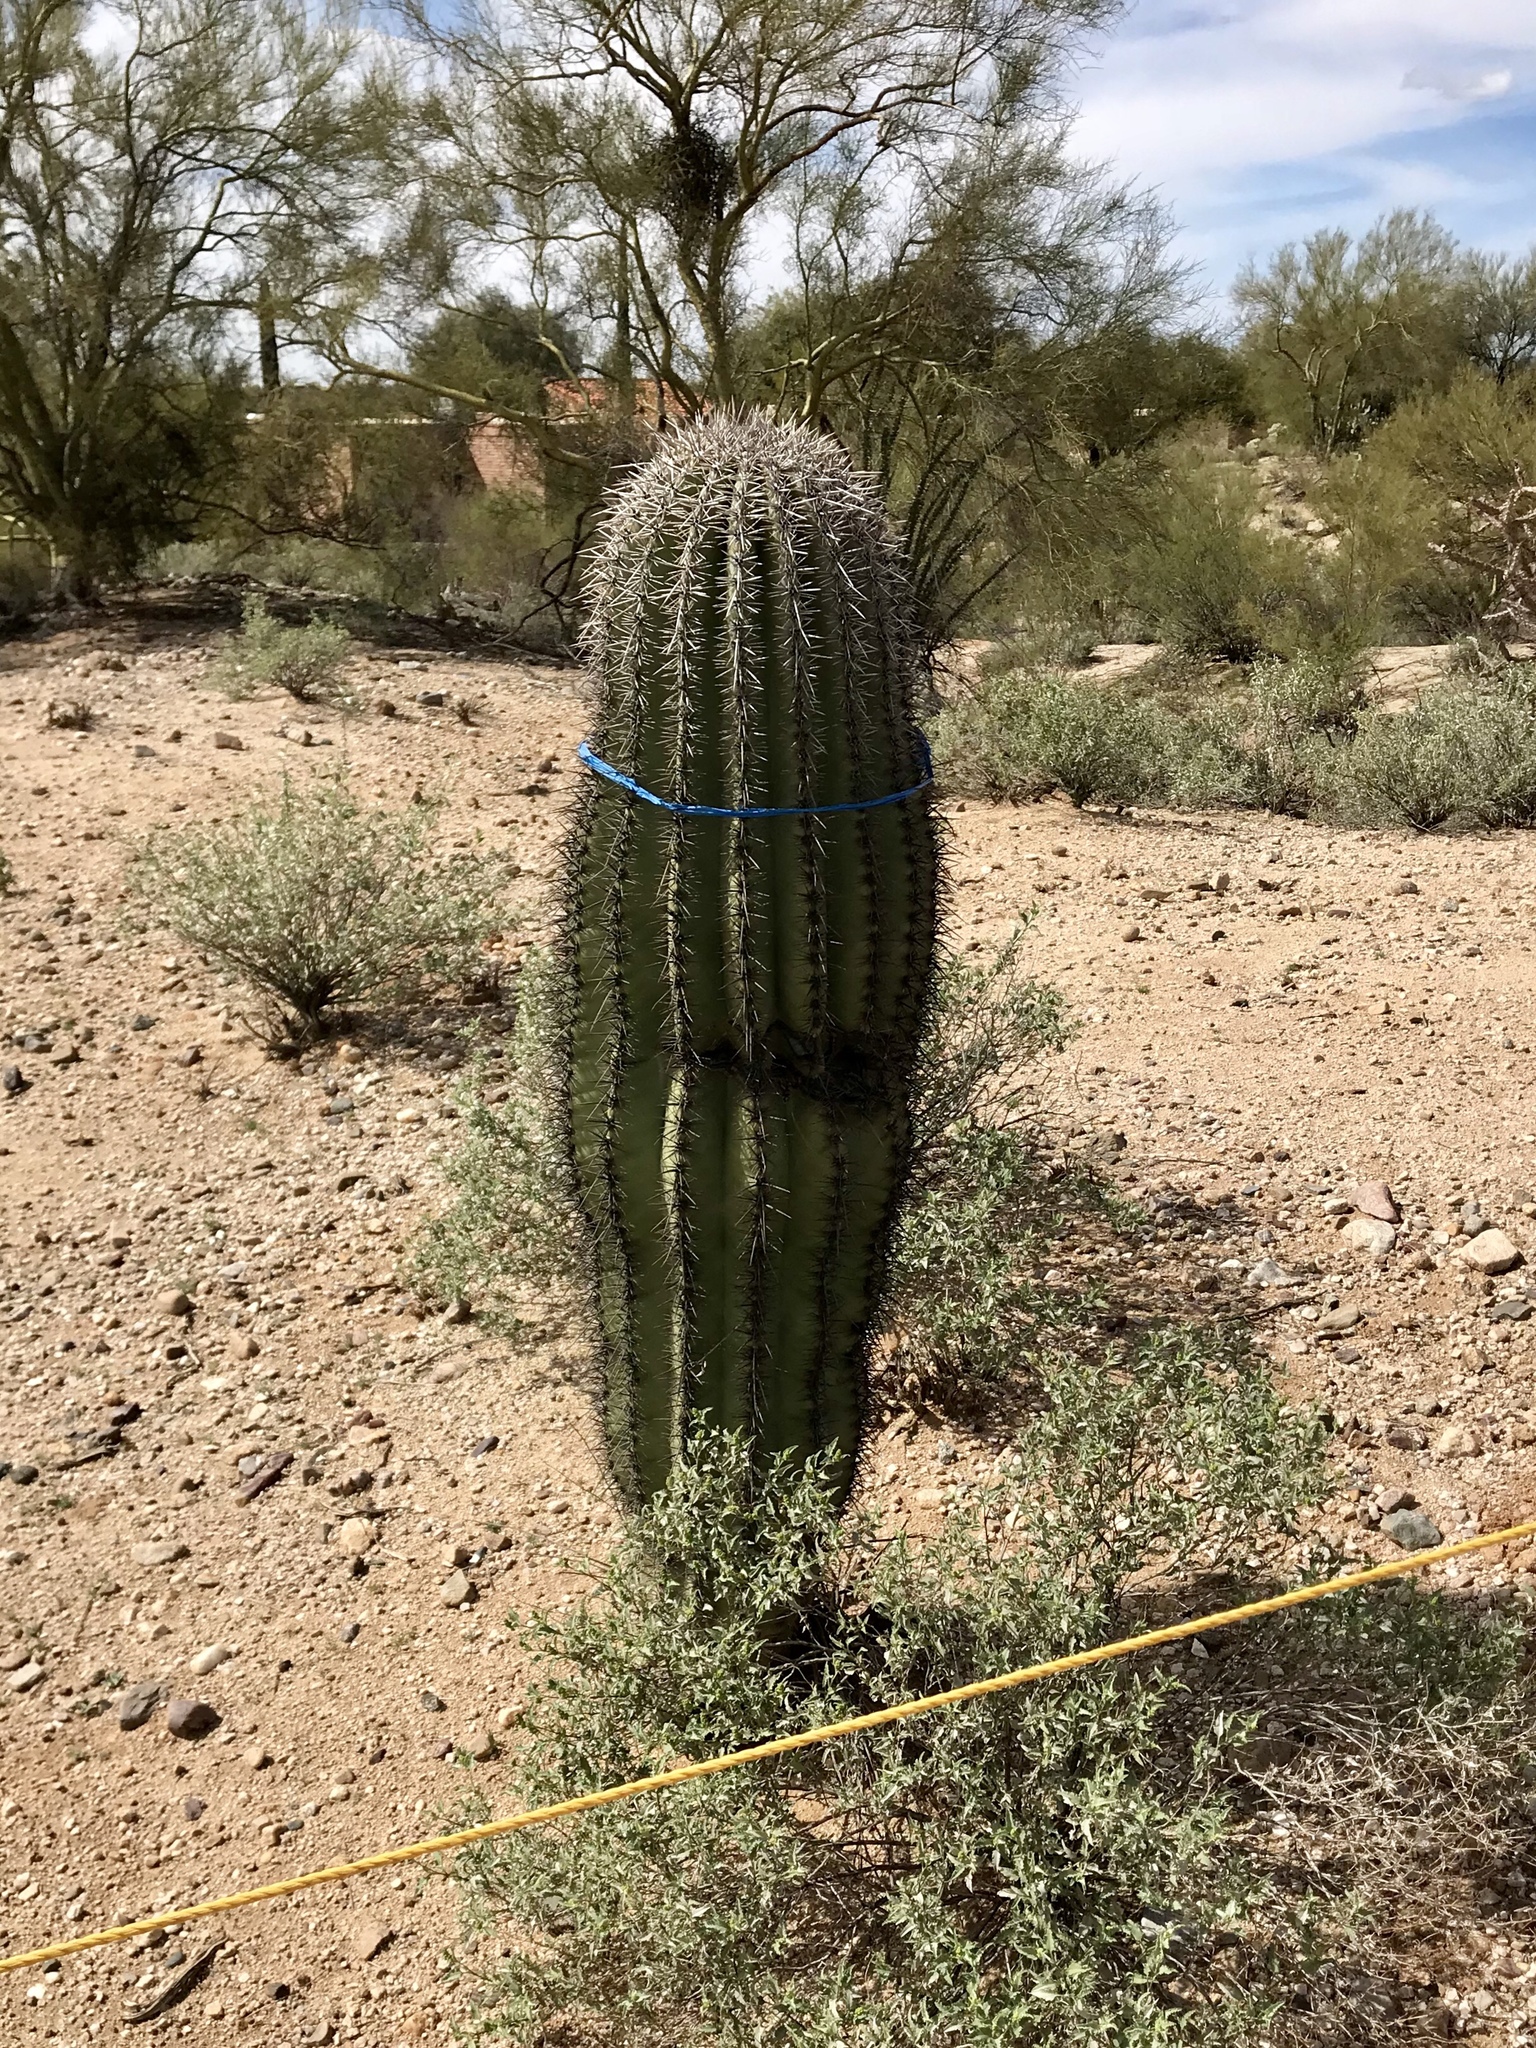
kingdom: Plantae
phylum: Tracheophyta
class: Magnoliopsida
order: Caryophyllales
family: Cactaceae
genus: Carnegiea
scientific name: Carnegiea gigantea
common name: Saguaro
